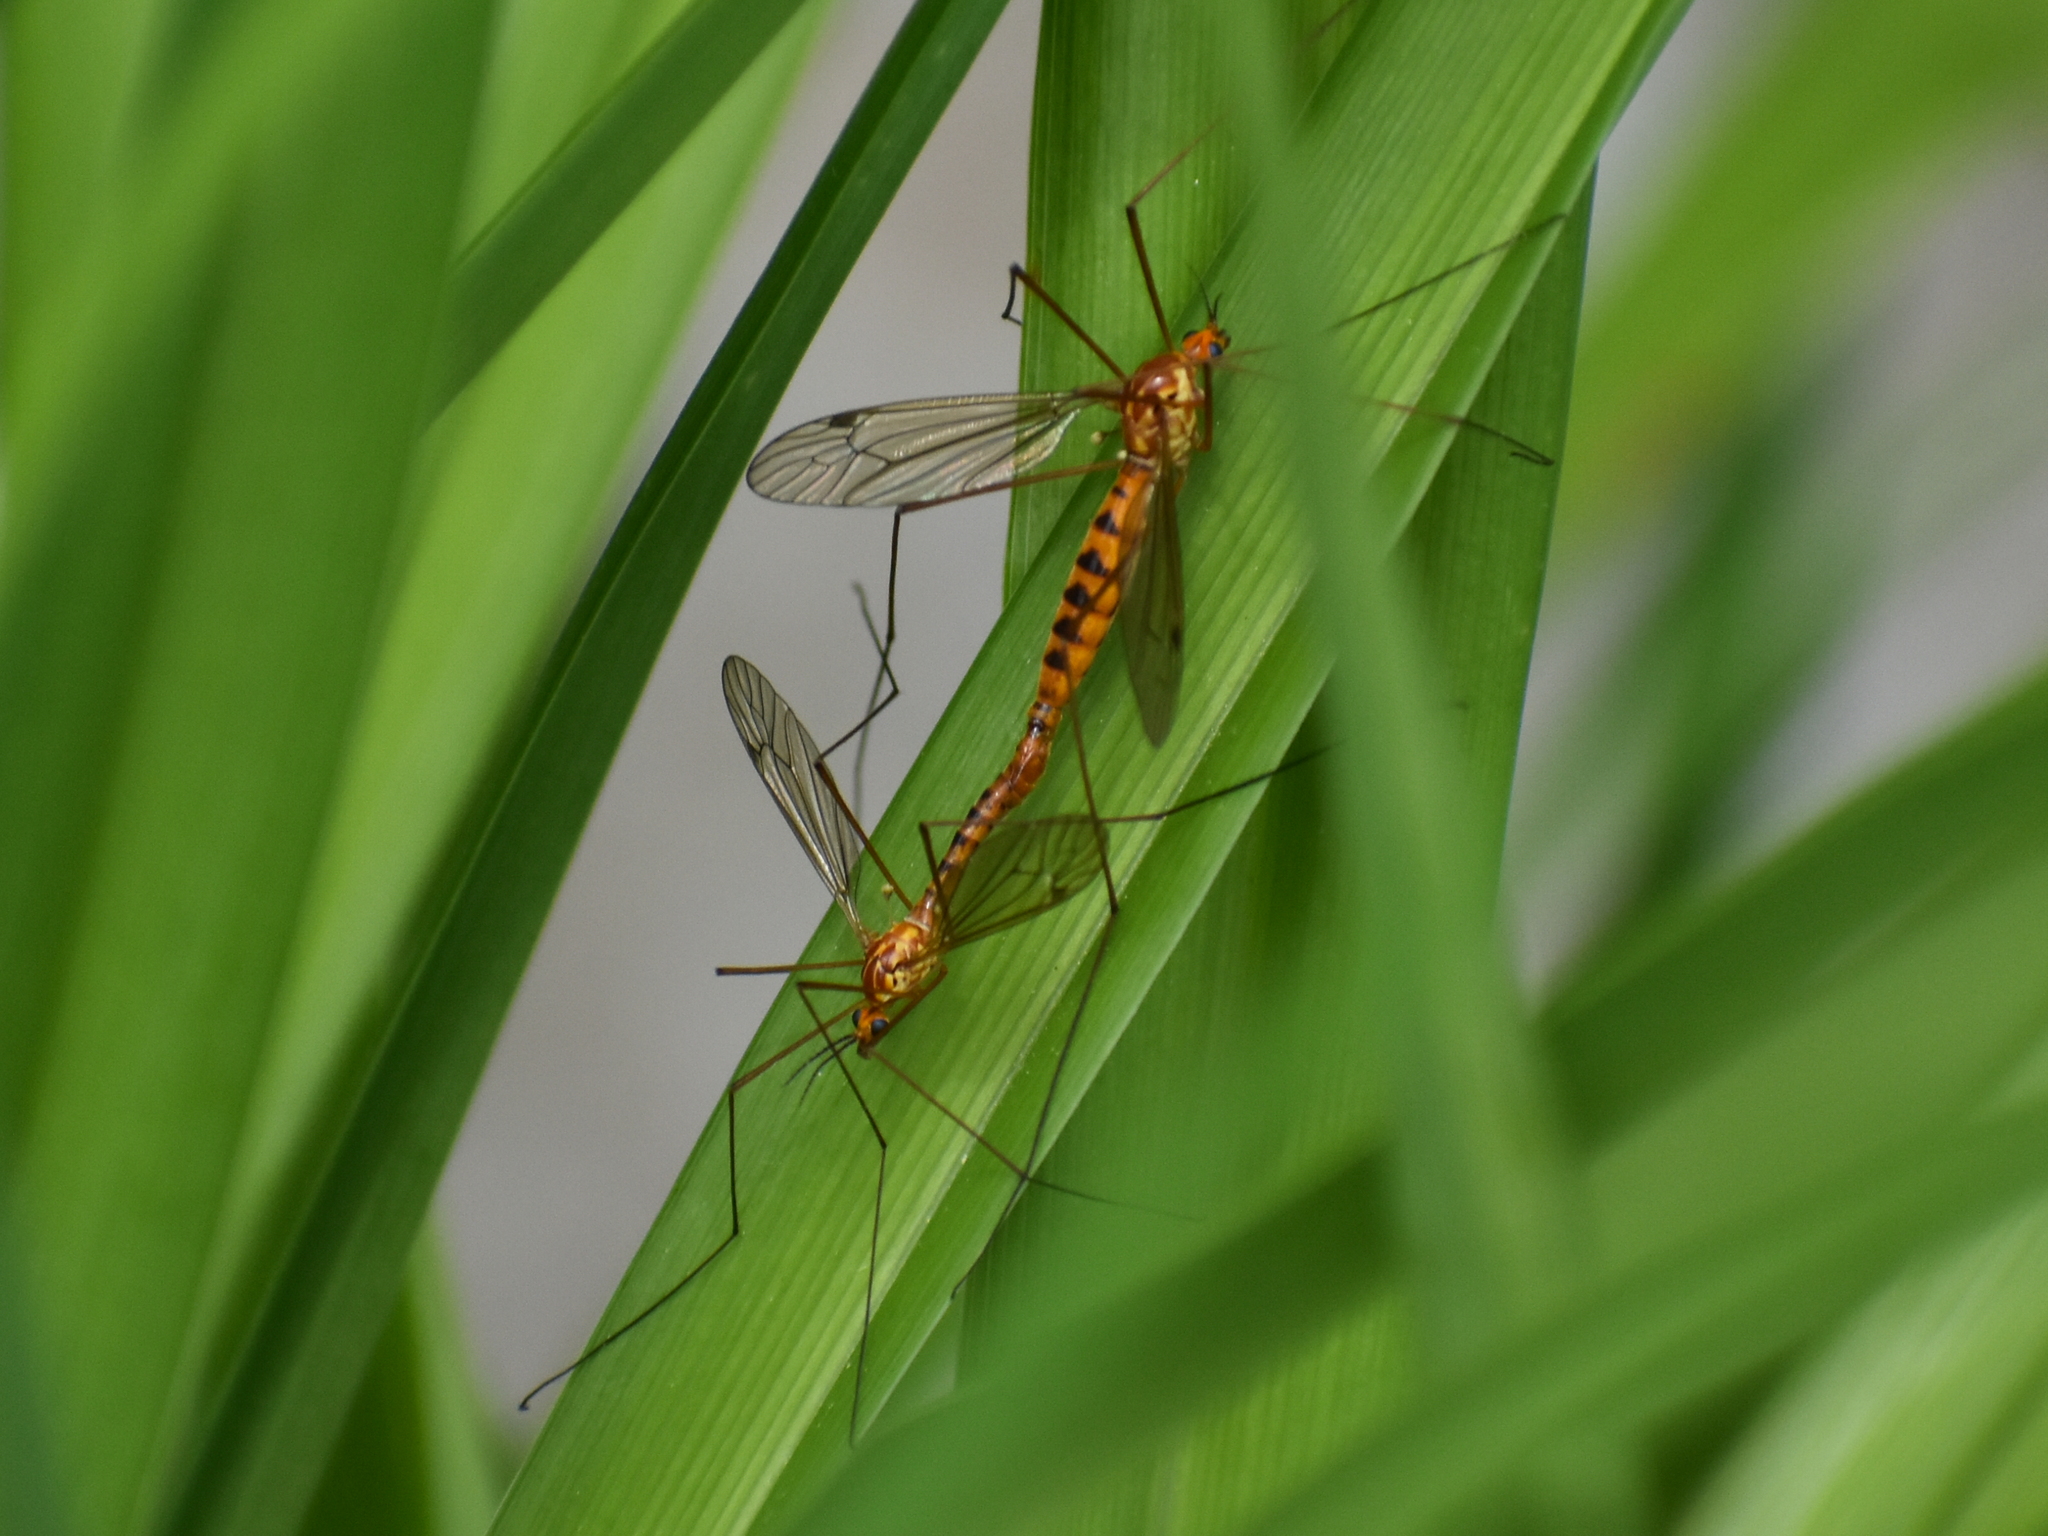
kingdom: Animalia
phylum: Arthropoda
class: Insecta
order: Diptera
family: Tipulidae
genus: Nephrotoma
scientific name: Nephrotoma ferruginea
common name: Ferruginous tiger crane fly
